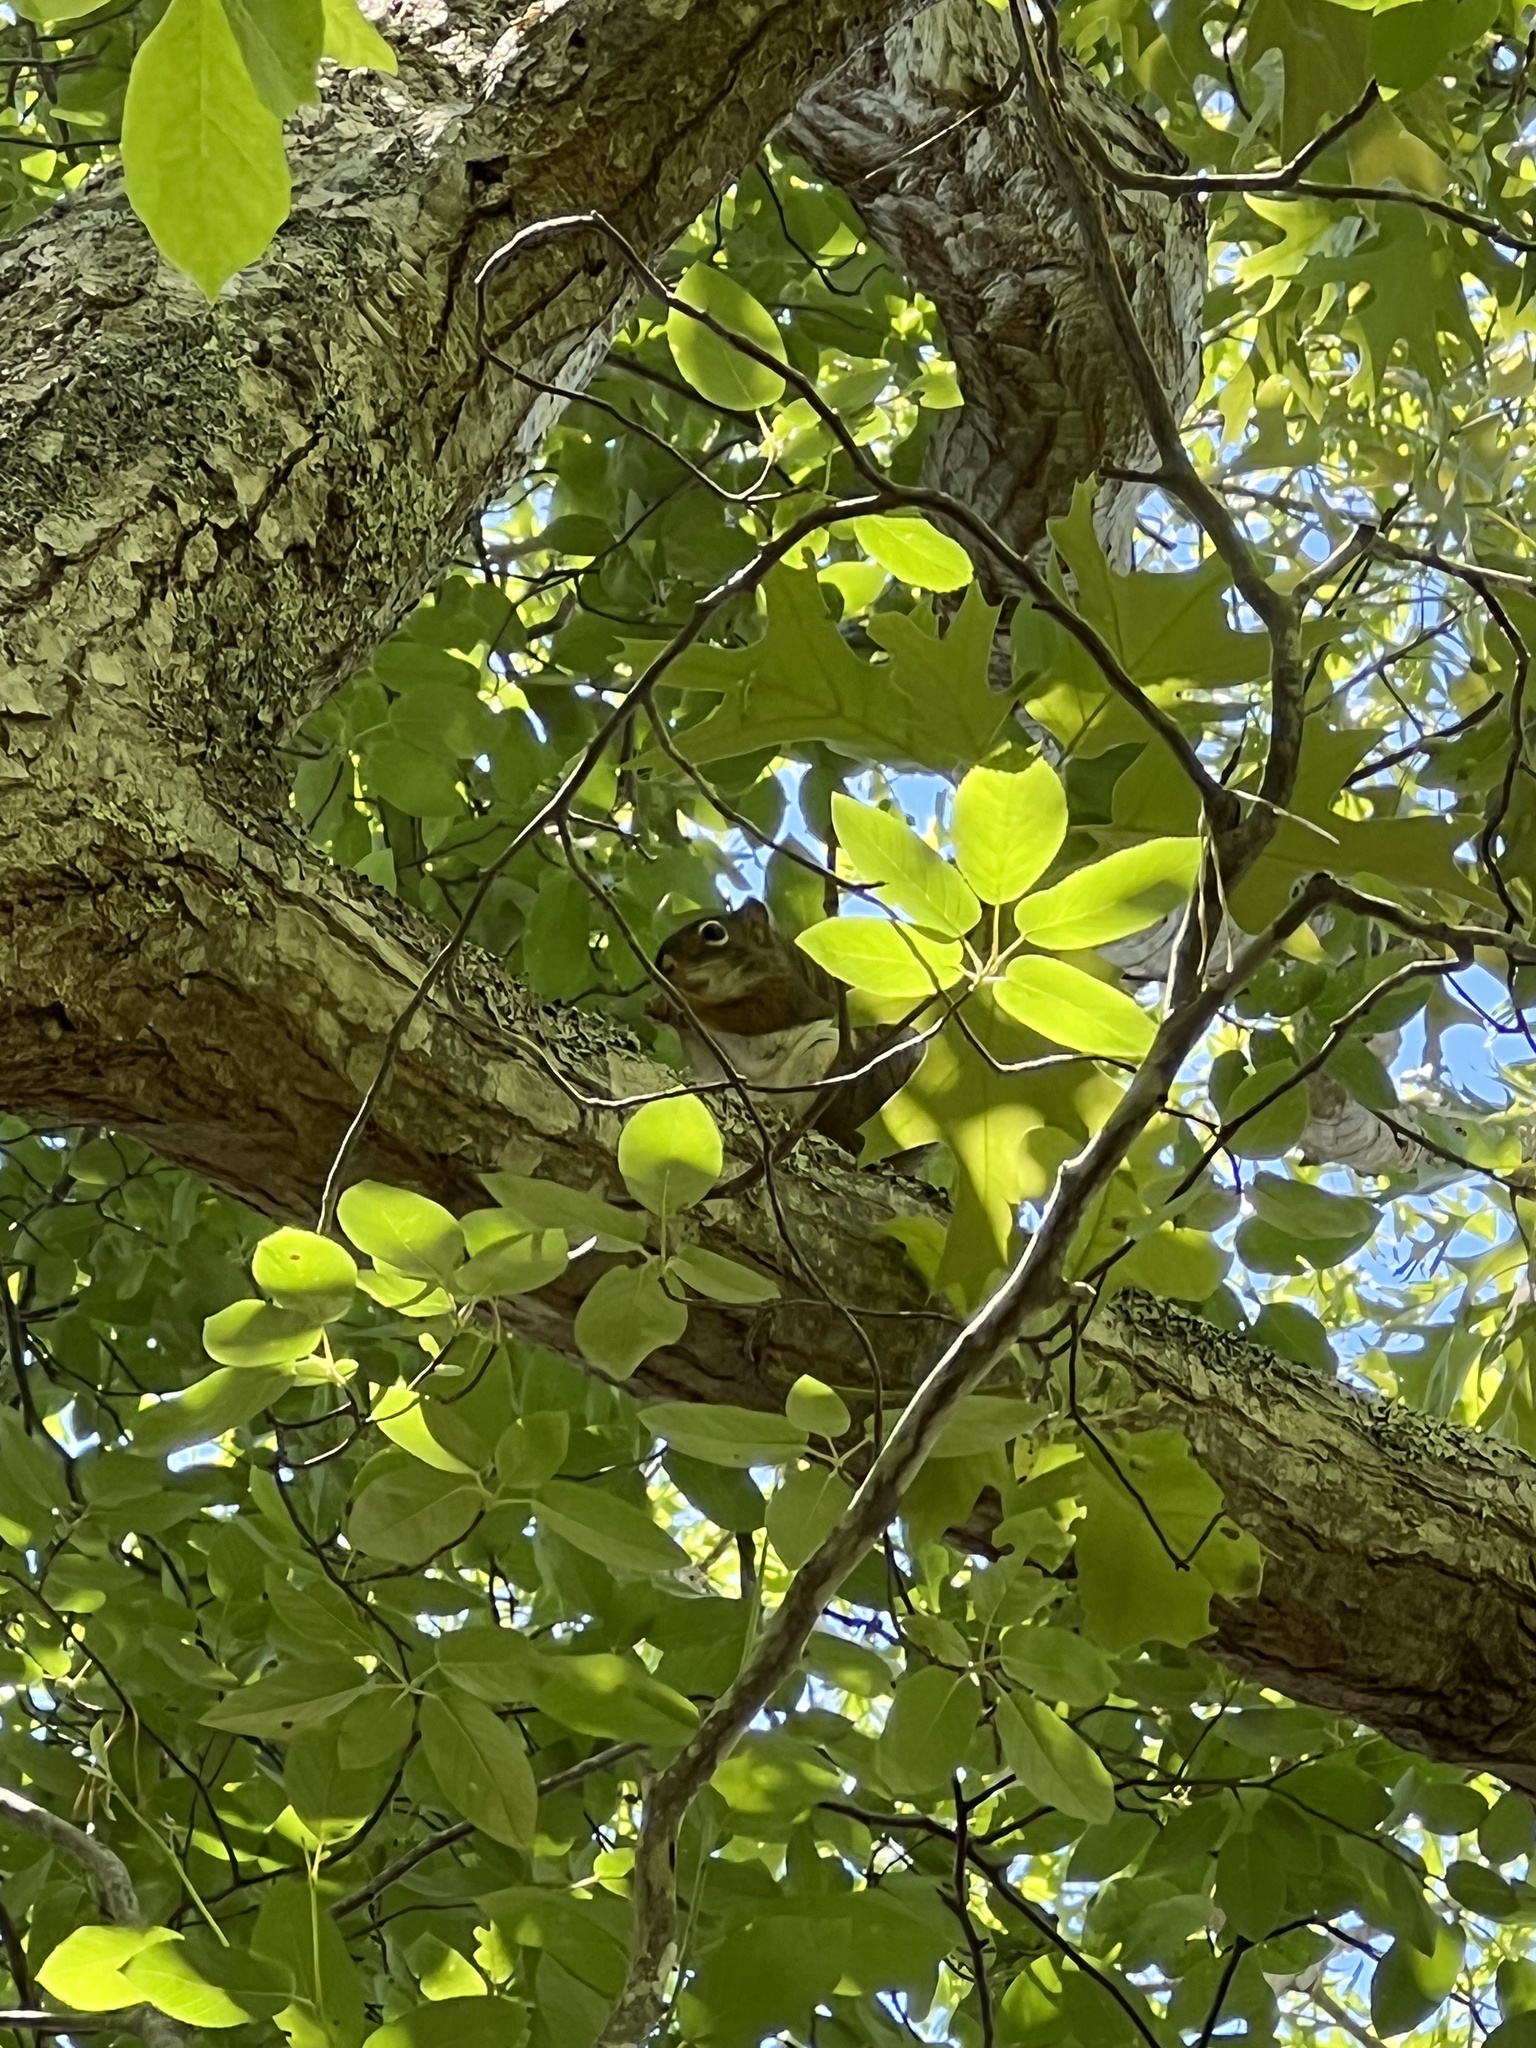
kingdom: Animalia
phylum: Chordata
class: Mammalia
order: Rodentia
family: Sciuridae
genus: Tamiasciurus
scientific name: Tamiasciurus hudsonicus
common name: Red squirrel
